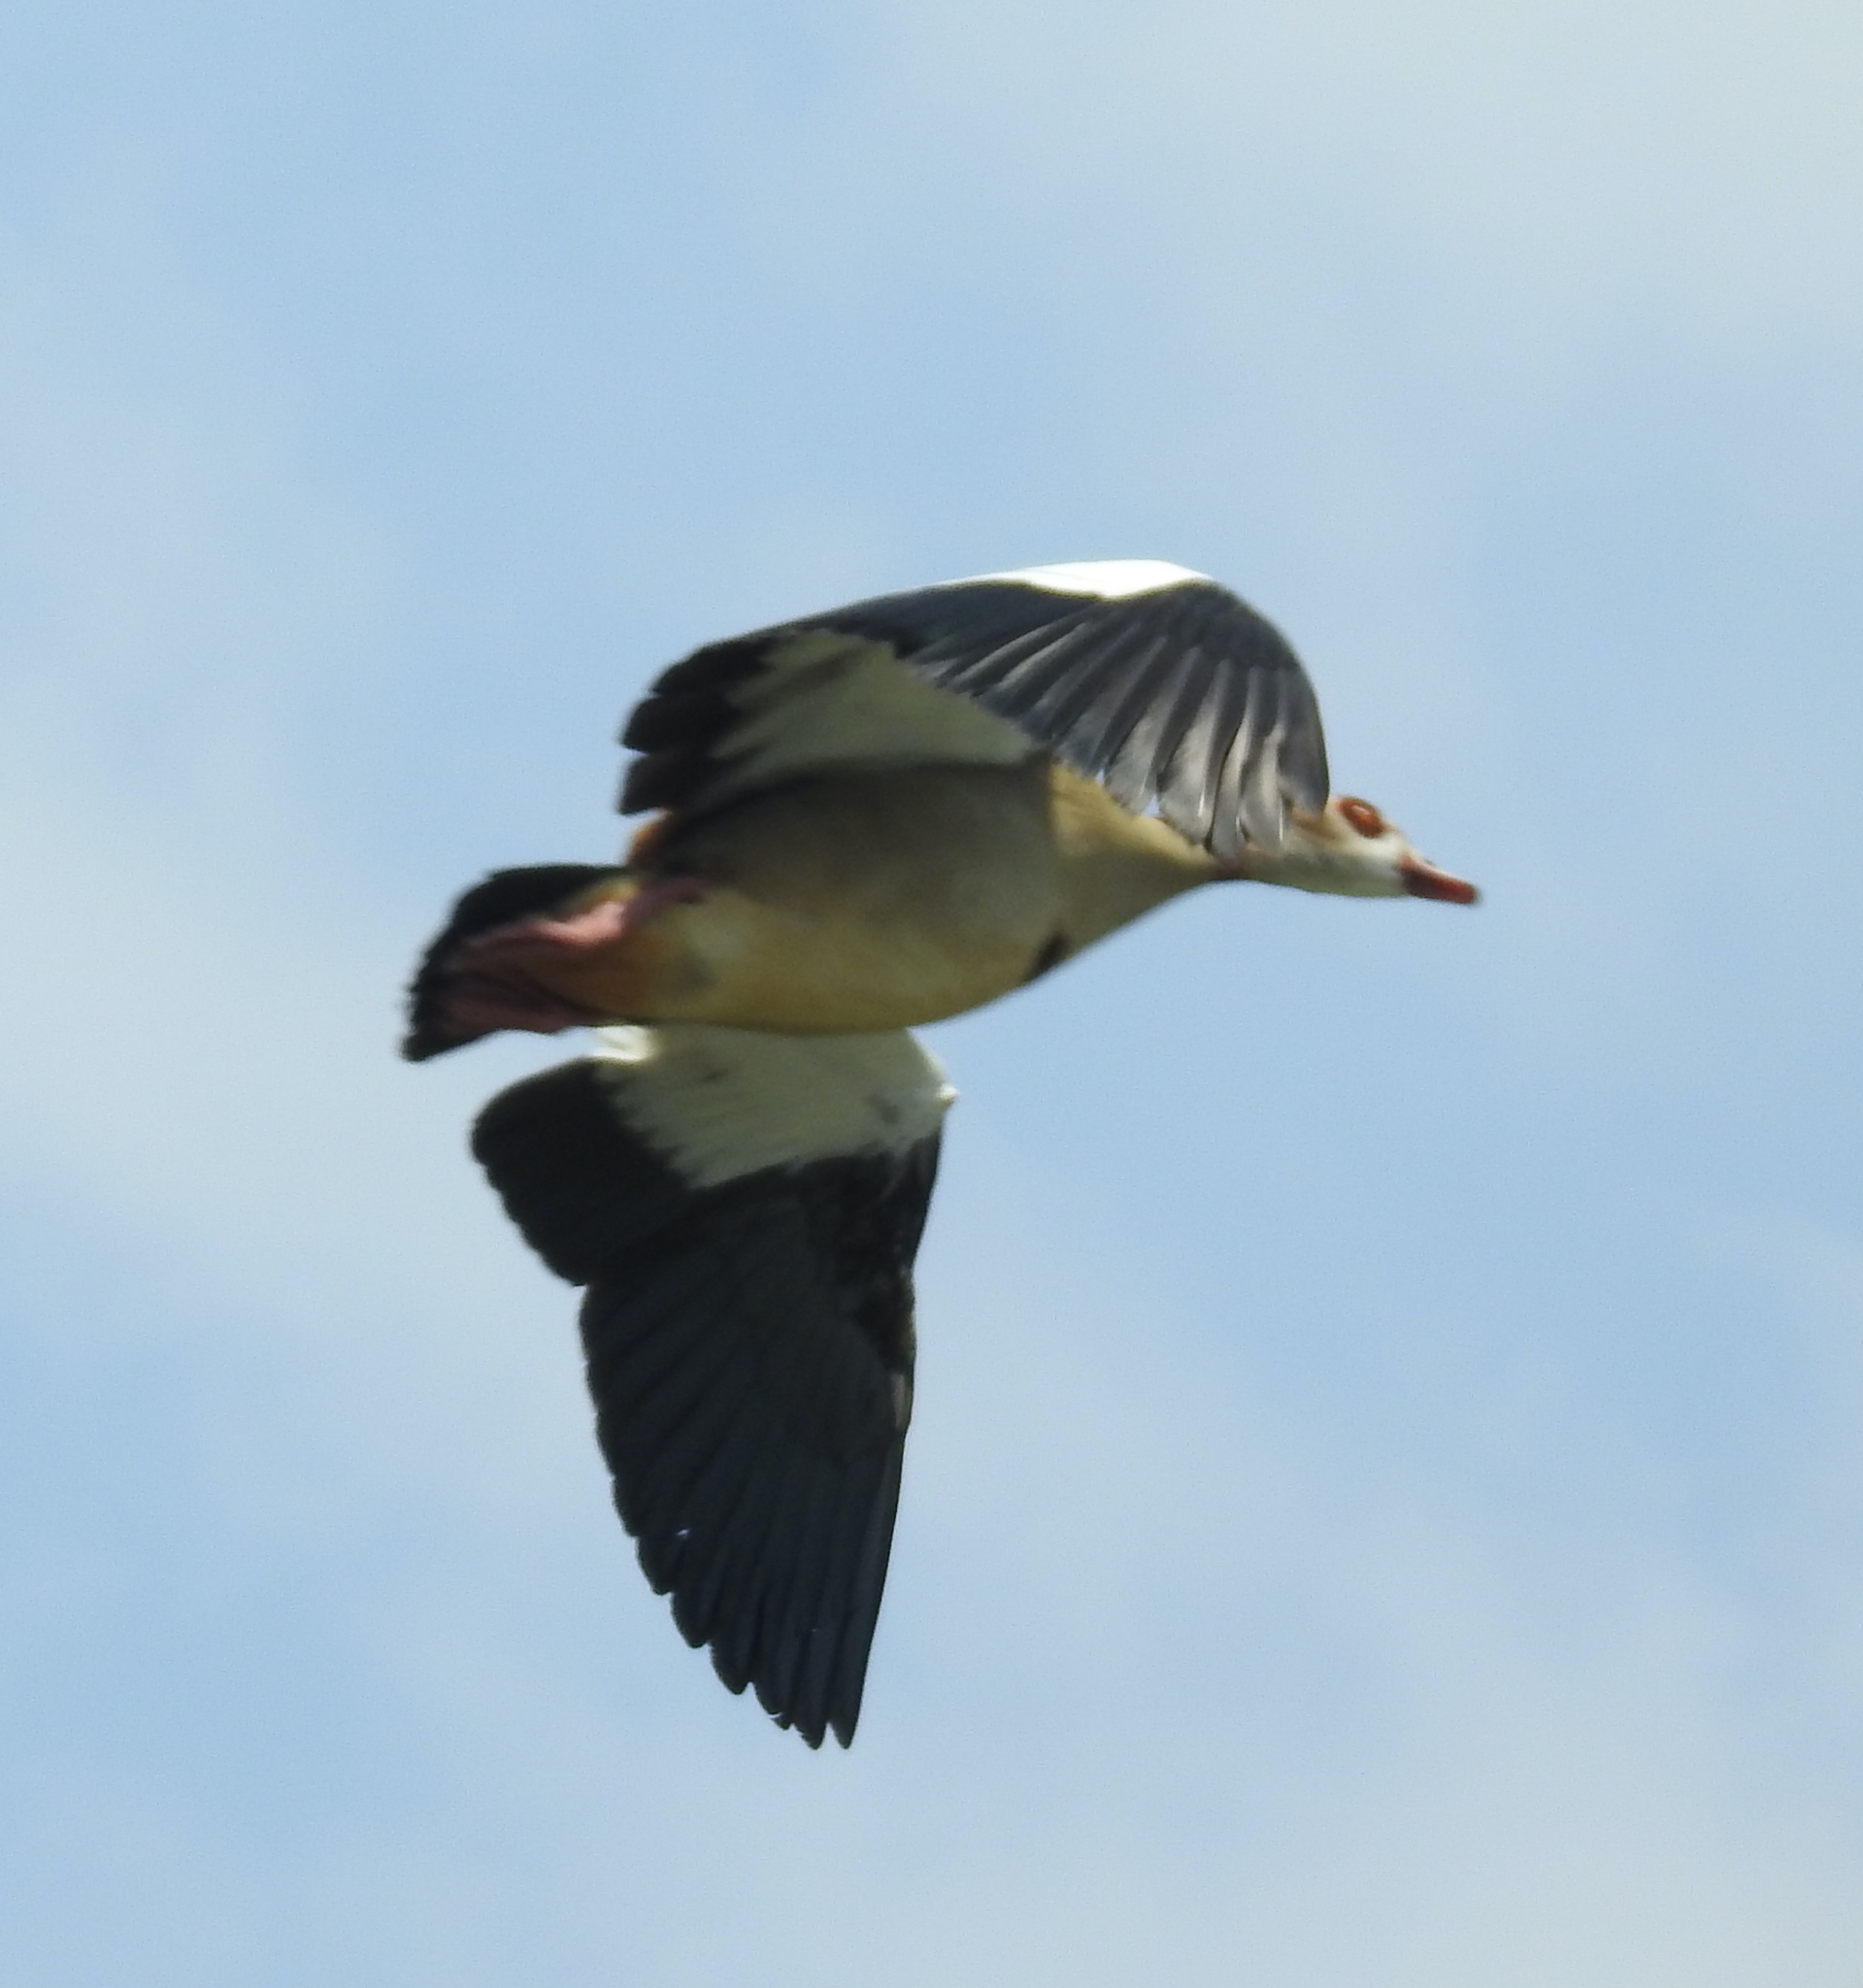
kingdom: Animalia
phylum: Chordata
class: Aves
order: Anseriformes
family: Anatidae
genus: Alopochen
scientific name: Alopochen aegyptiaca
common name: Egyptian goose
